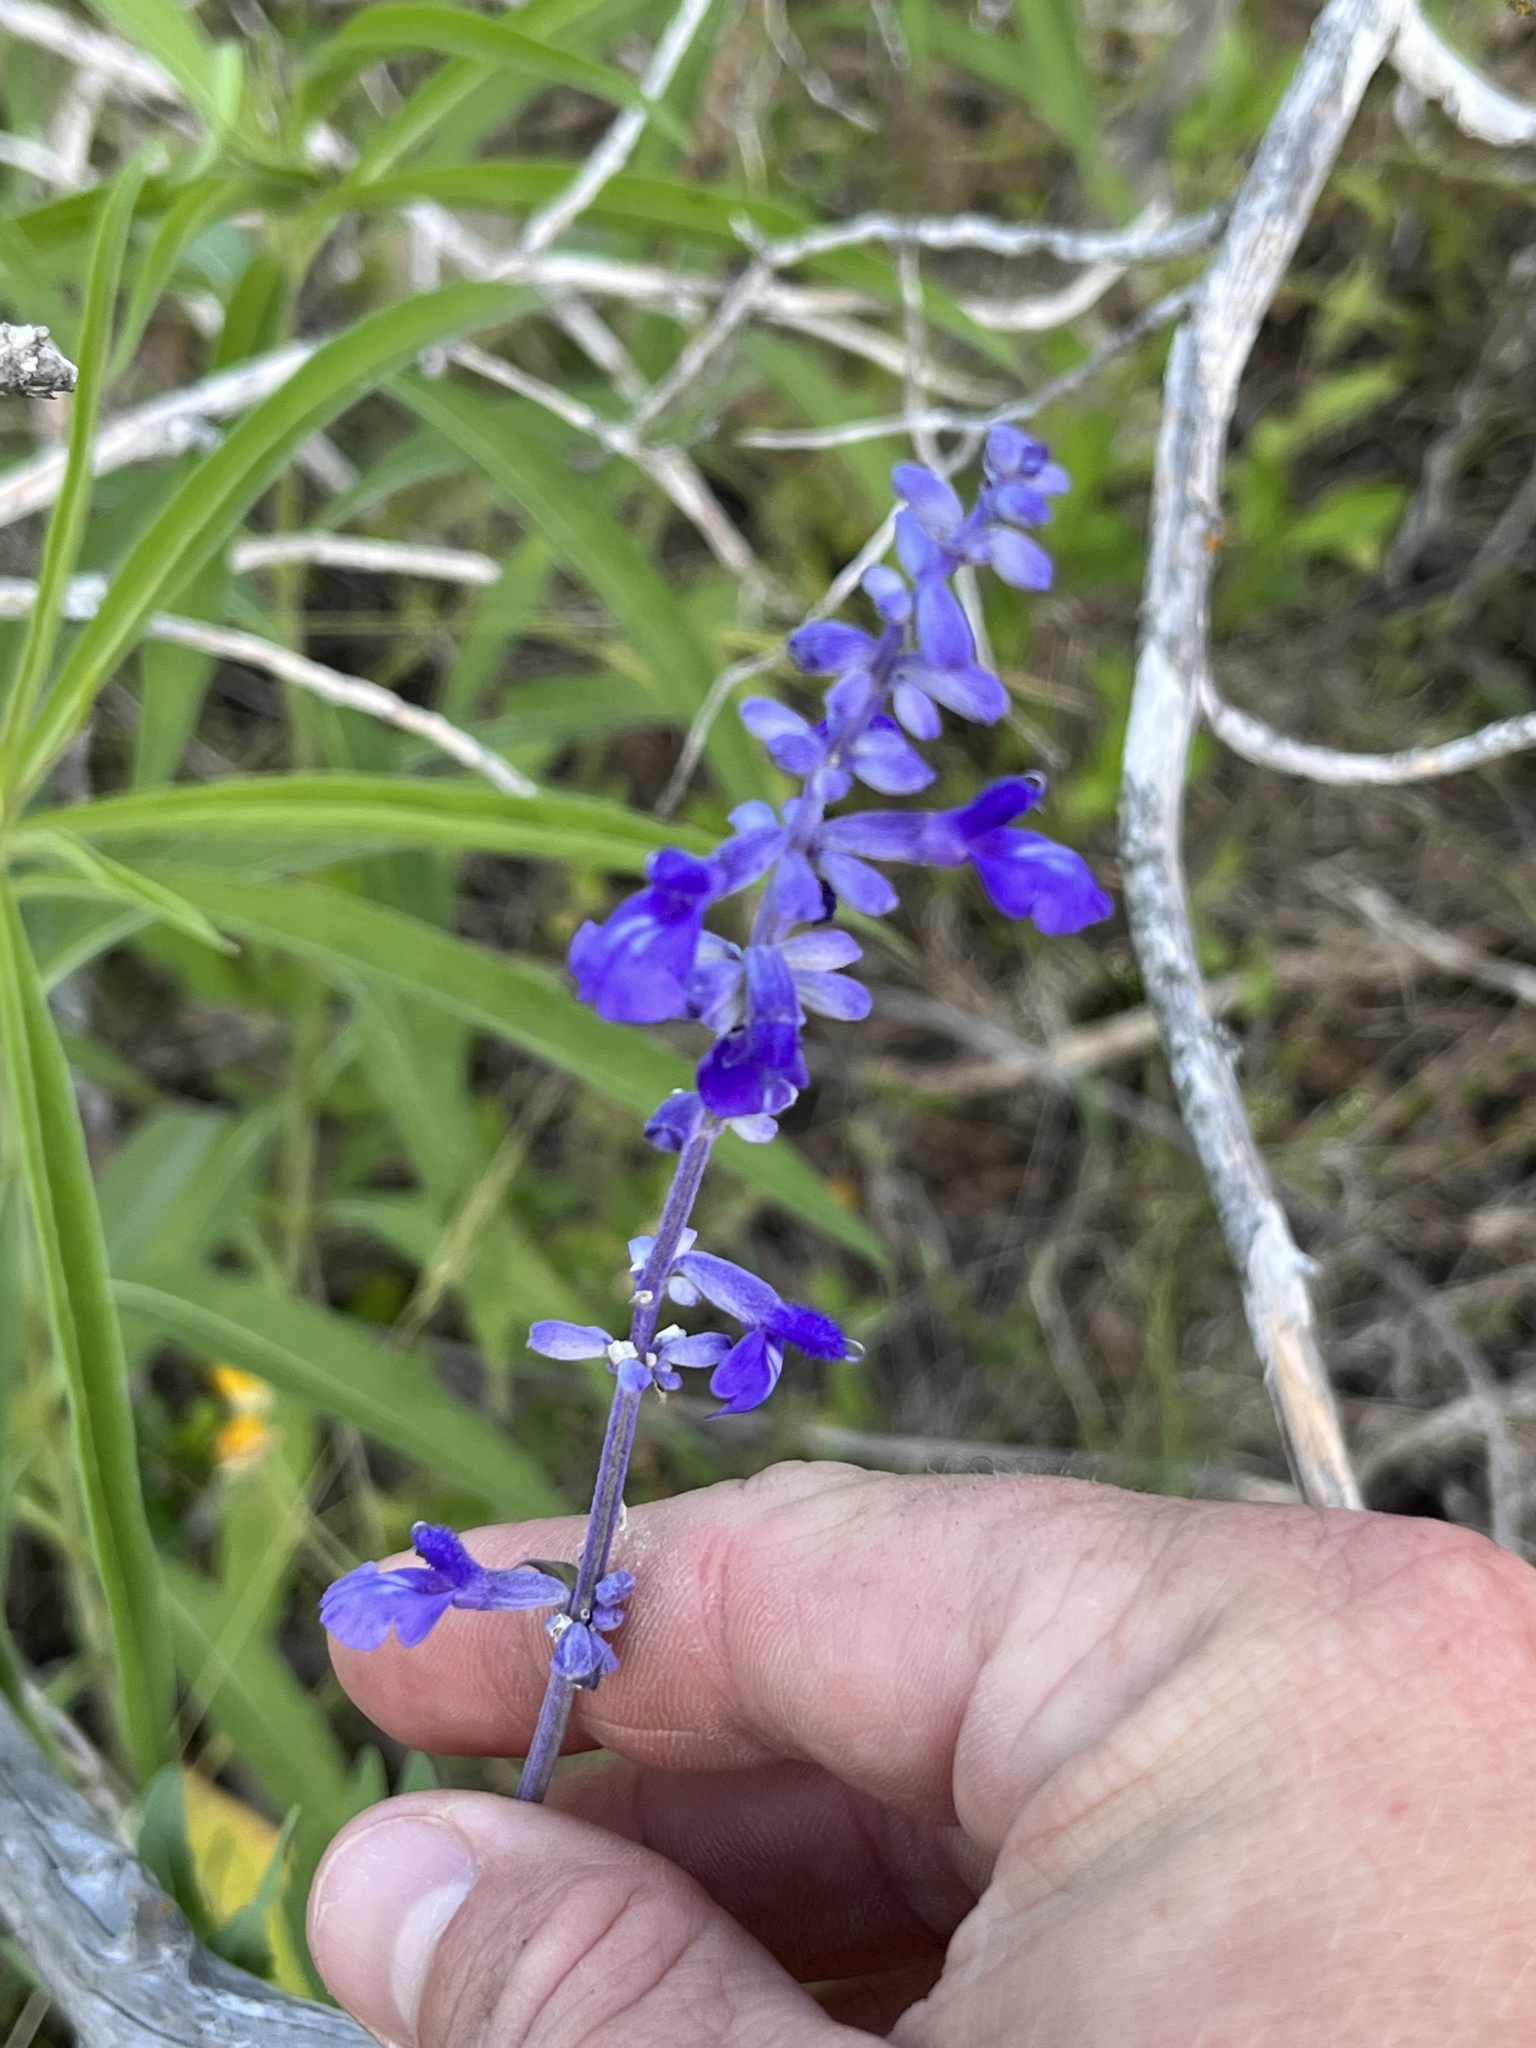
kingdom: Plantae
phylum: Tracheophyta
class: Magnoliopsida
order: Lamiales
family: Lamiaceae
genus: Salvia
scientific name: Salvia farinacea
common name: Mealy sage
